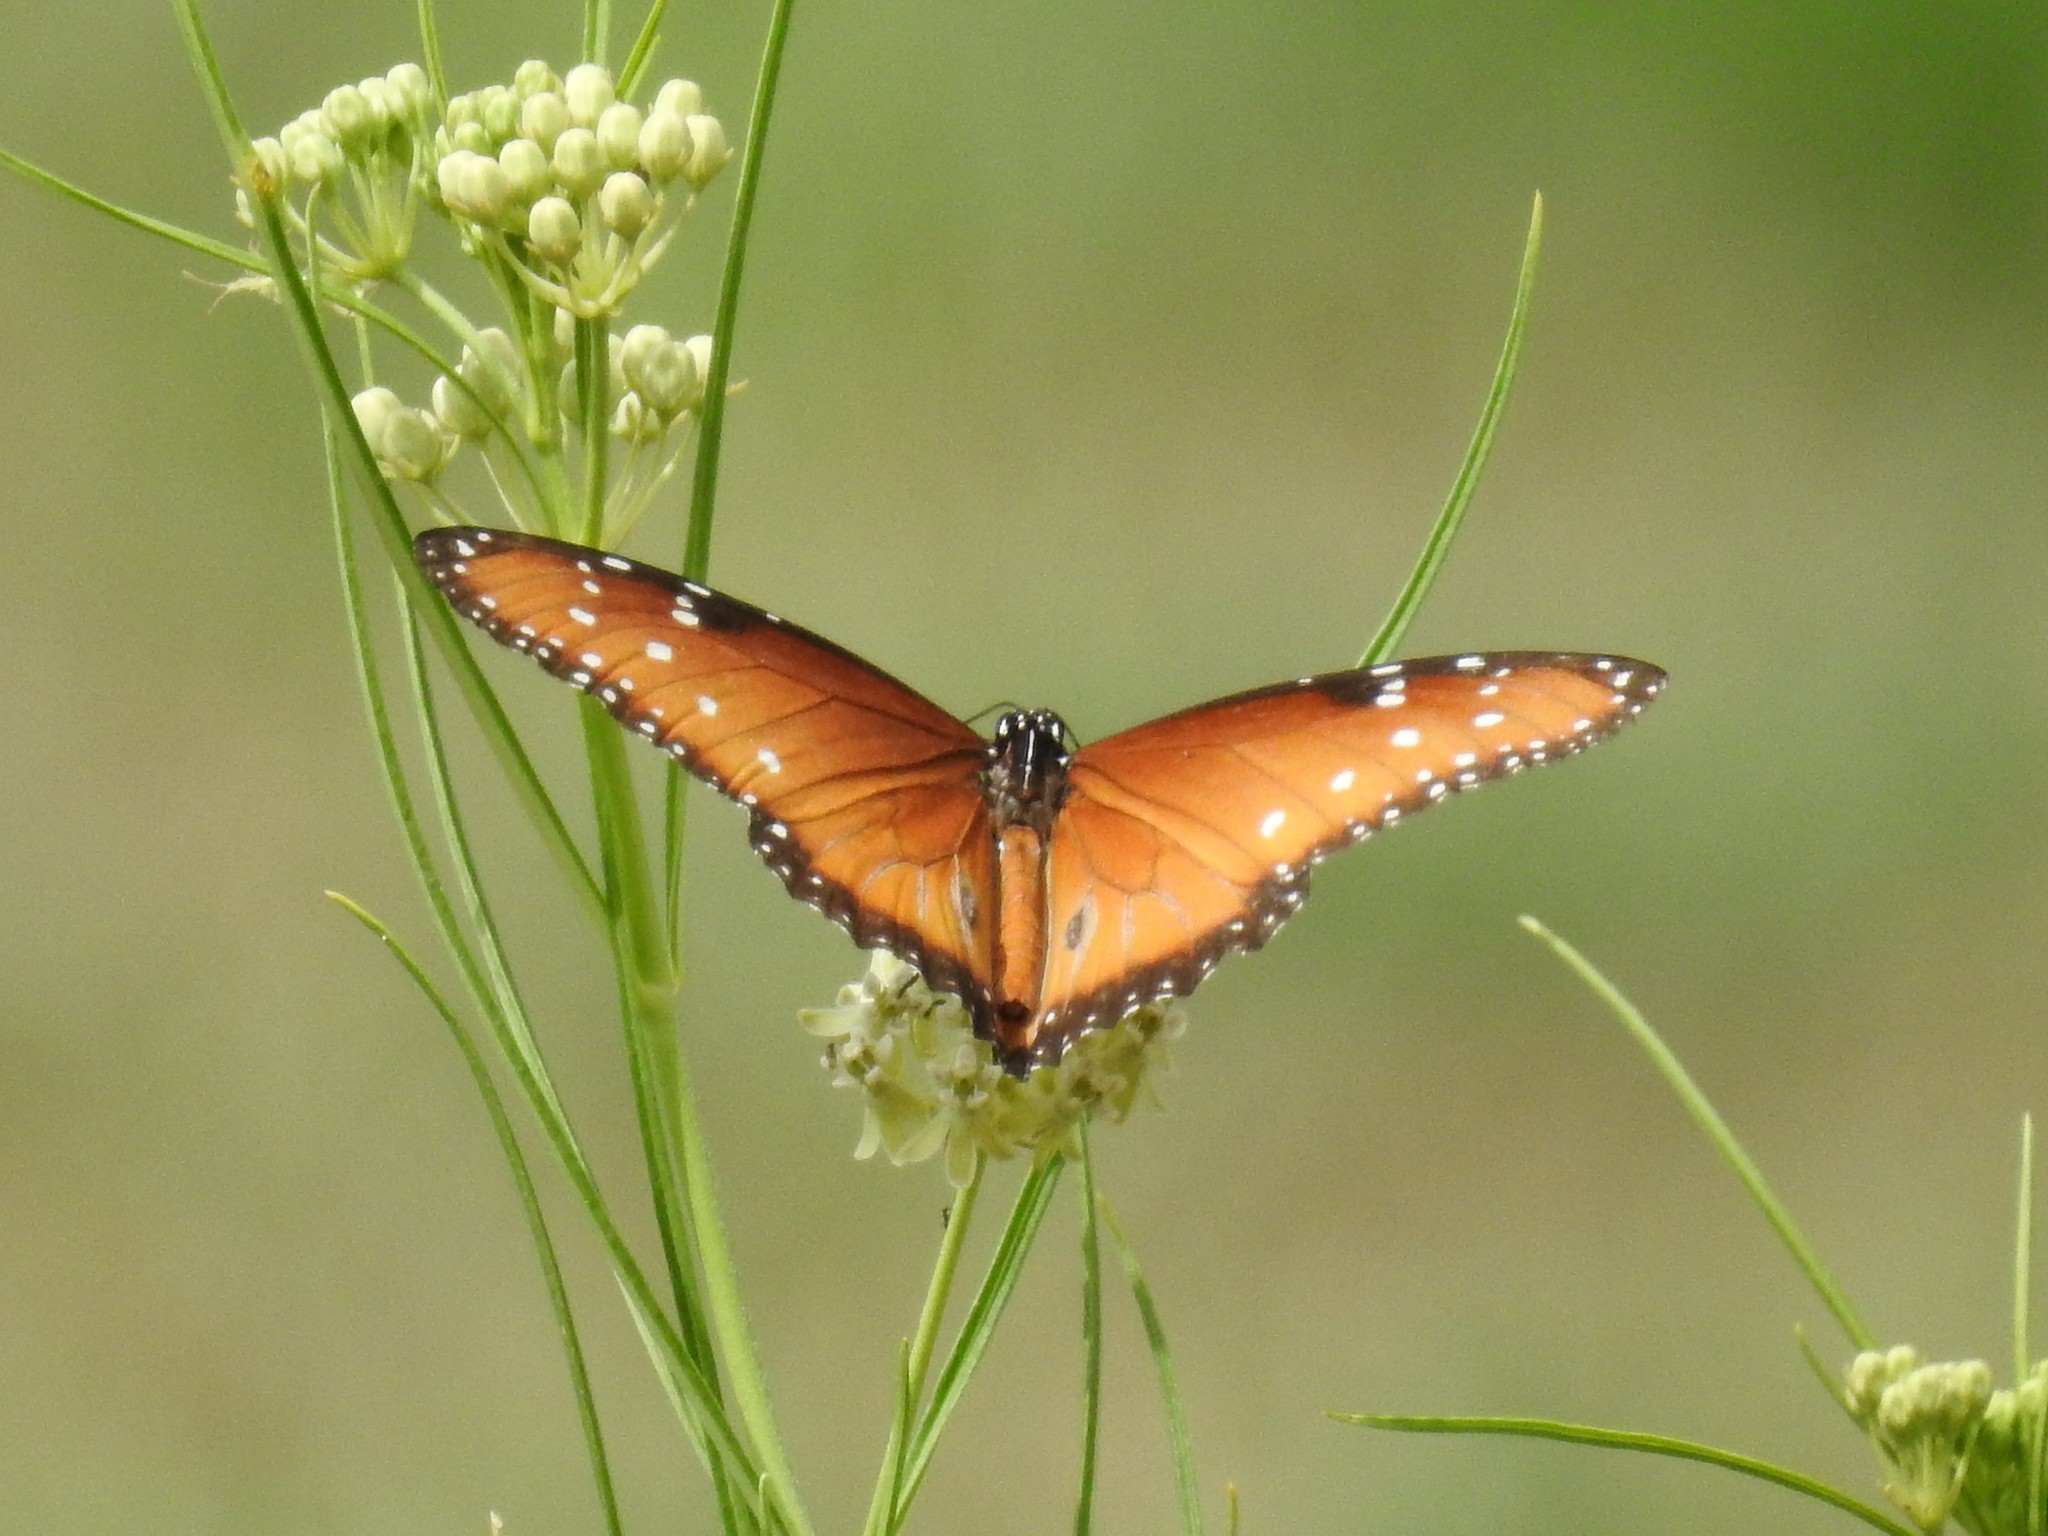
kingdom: Animalia
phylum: Arthropoda
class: Insecta
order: Lepidoptera
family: Nymphalidae
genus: Danaus
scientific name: Danaus gilippus
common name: Queen
